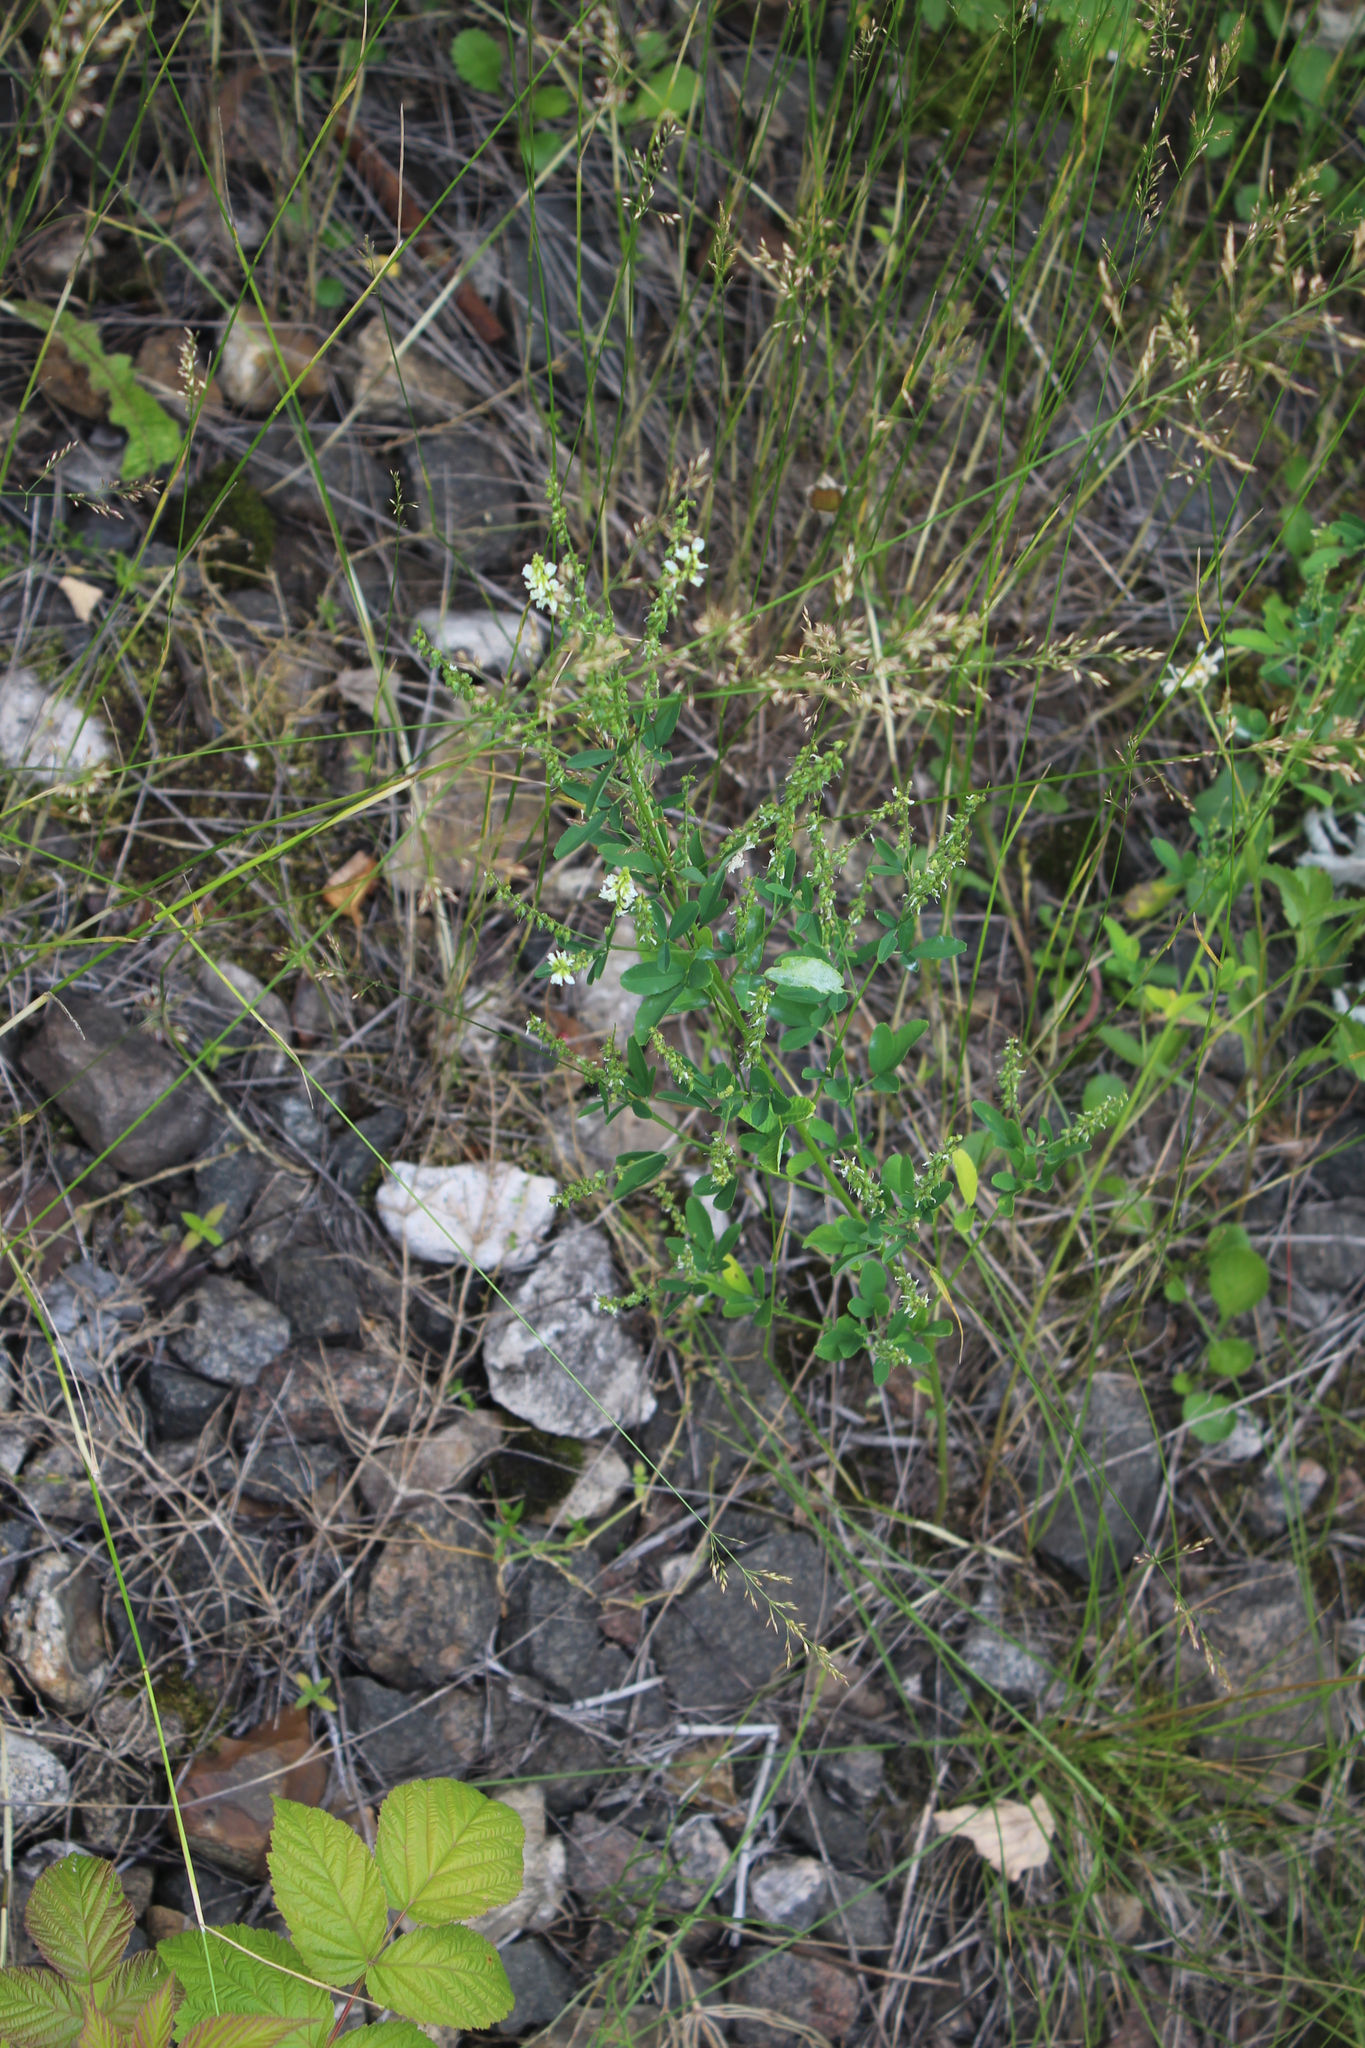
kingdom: Plantae
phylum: Tracheophyta
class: Magnoliopsida
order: Fabales
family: Fabaceae
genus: Melilotus
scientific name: Melilotus albus
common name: White melilot
